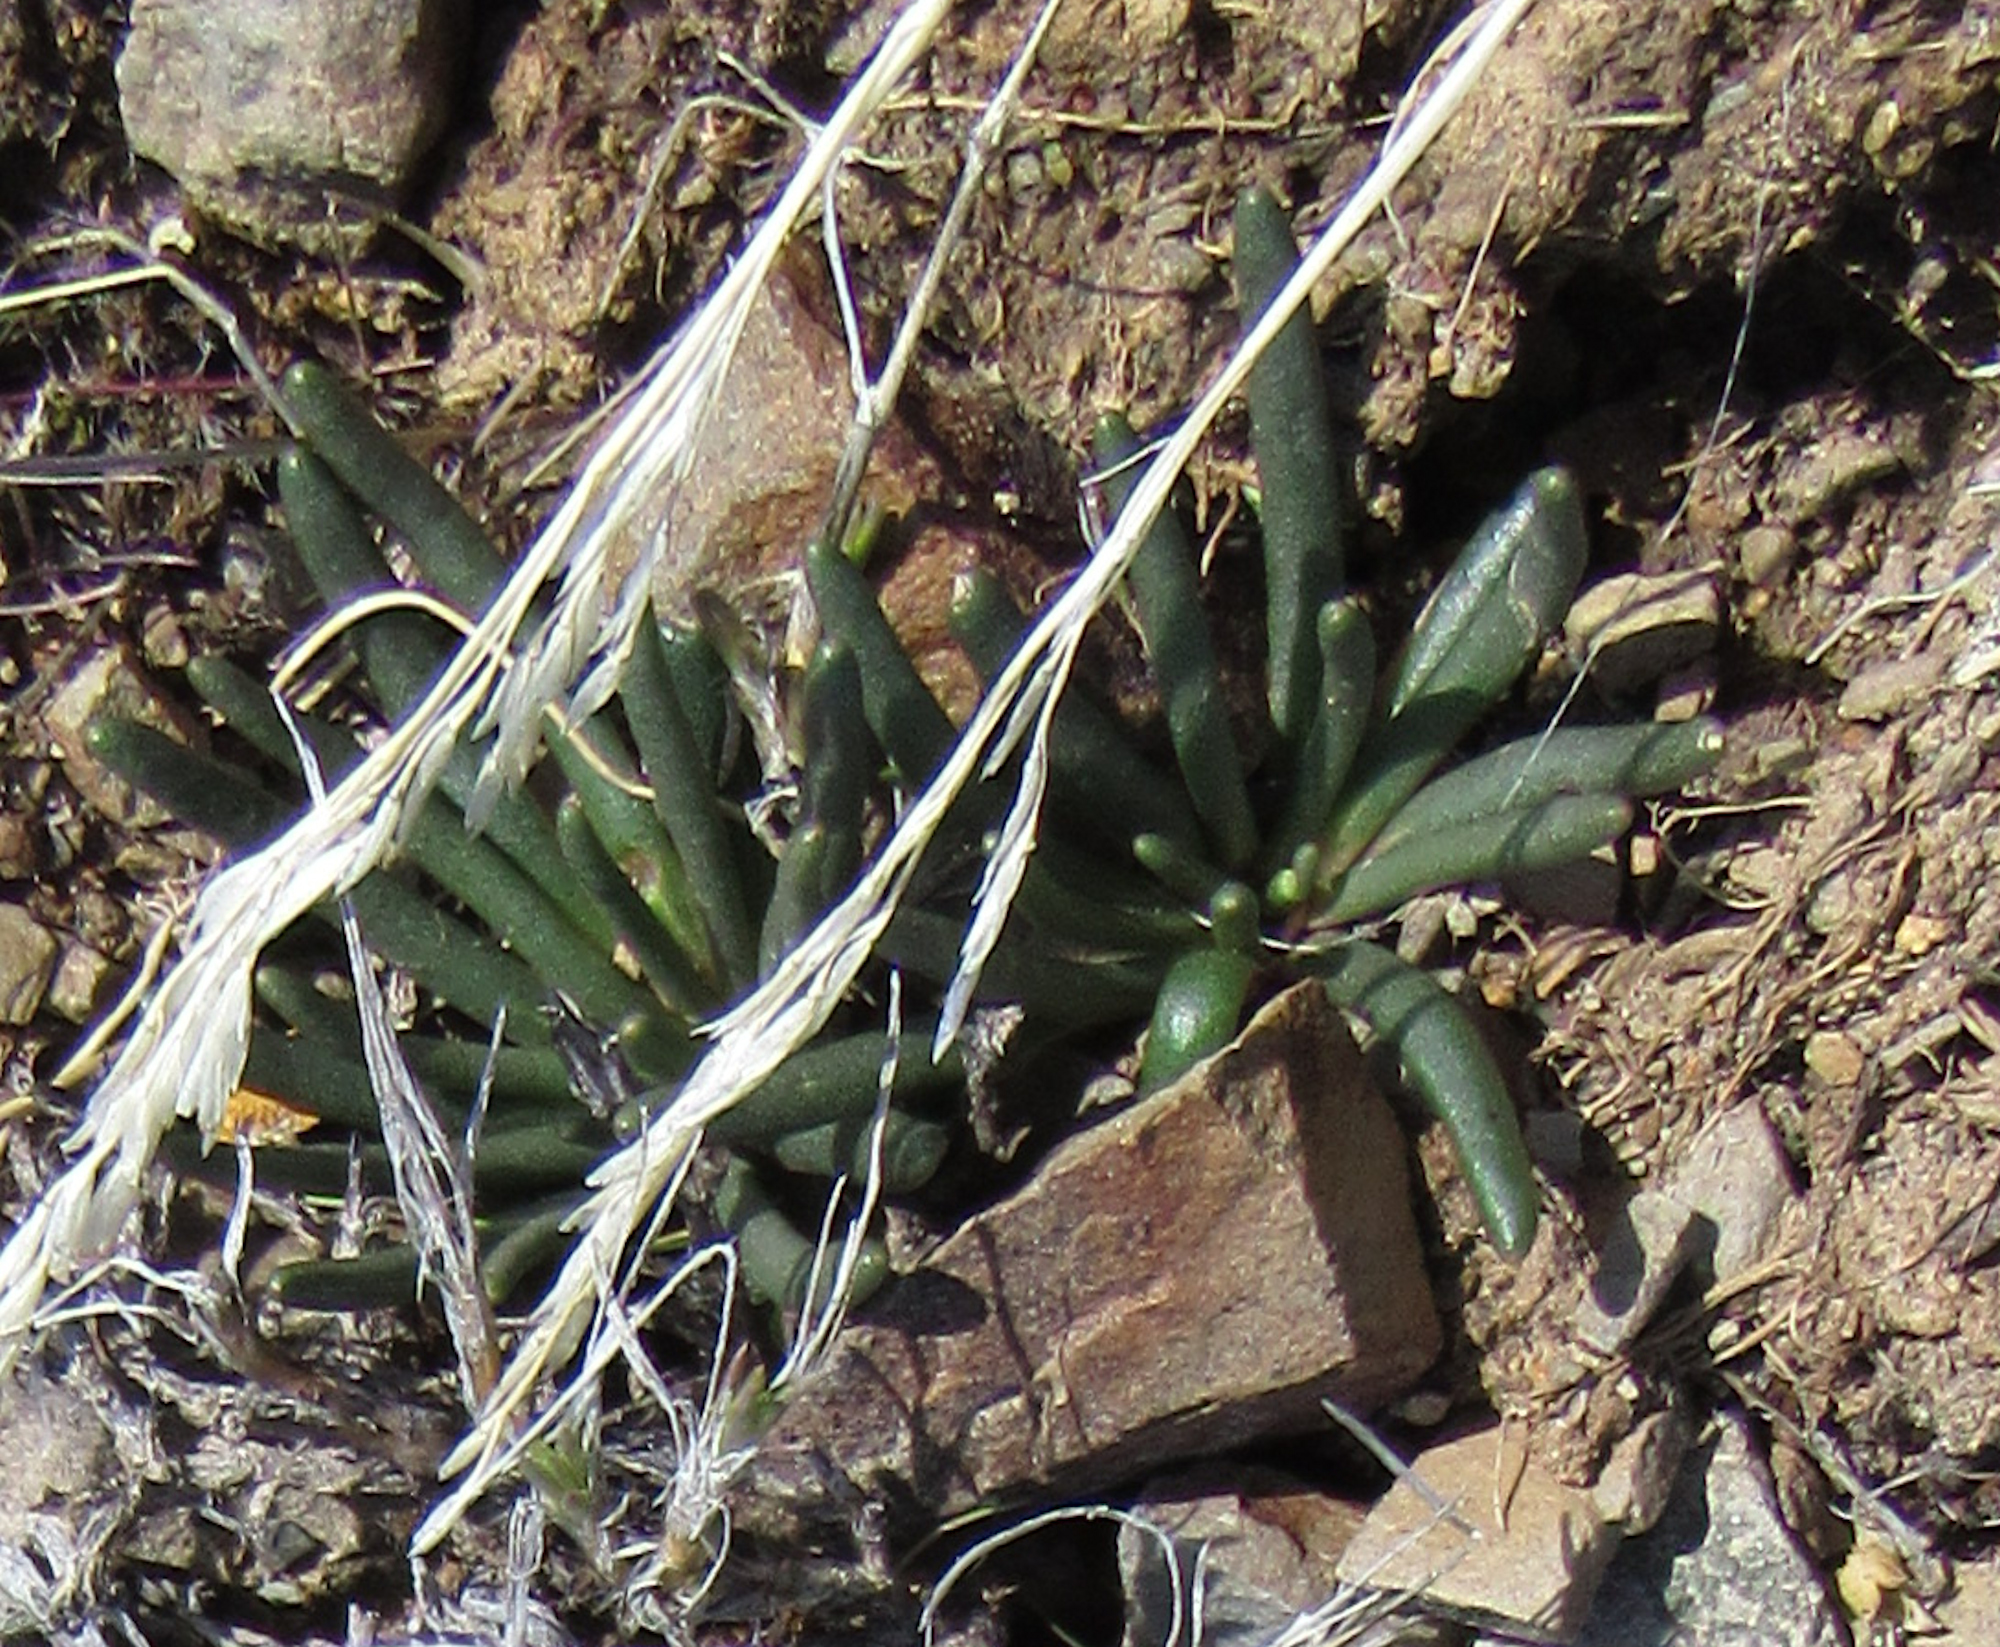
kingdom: Plantae
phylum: Tracheophyta
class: Magnoliopsida
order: Caryophyllales
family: Montiaceae
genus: Lewisia
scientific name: Lewisia rediviva
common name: Bitter-root
